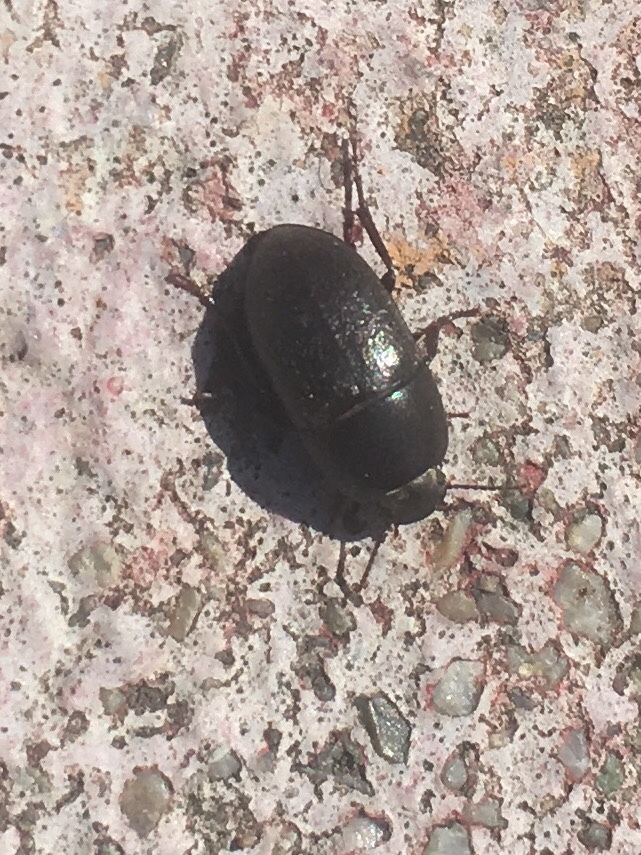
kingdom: Animalia
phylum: Arthropoda
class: Insecta
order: Coleoptera
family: Tenebrionidae
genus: Coniontis
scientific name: Coniontis
